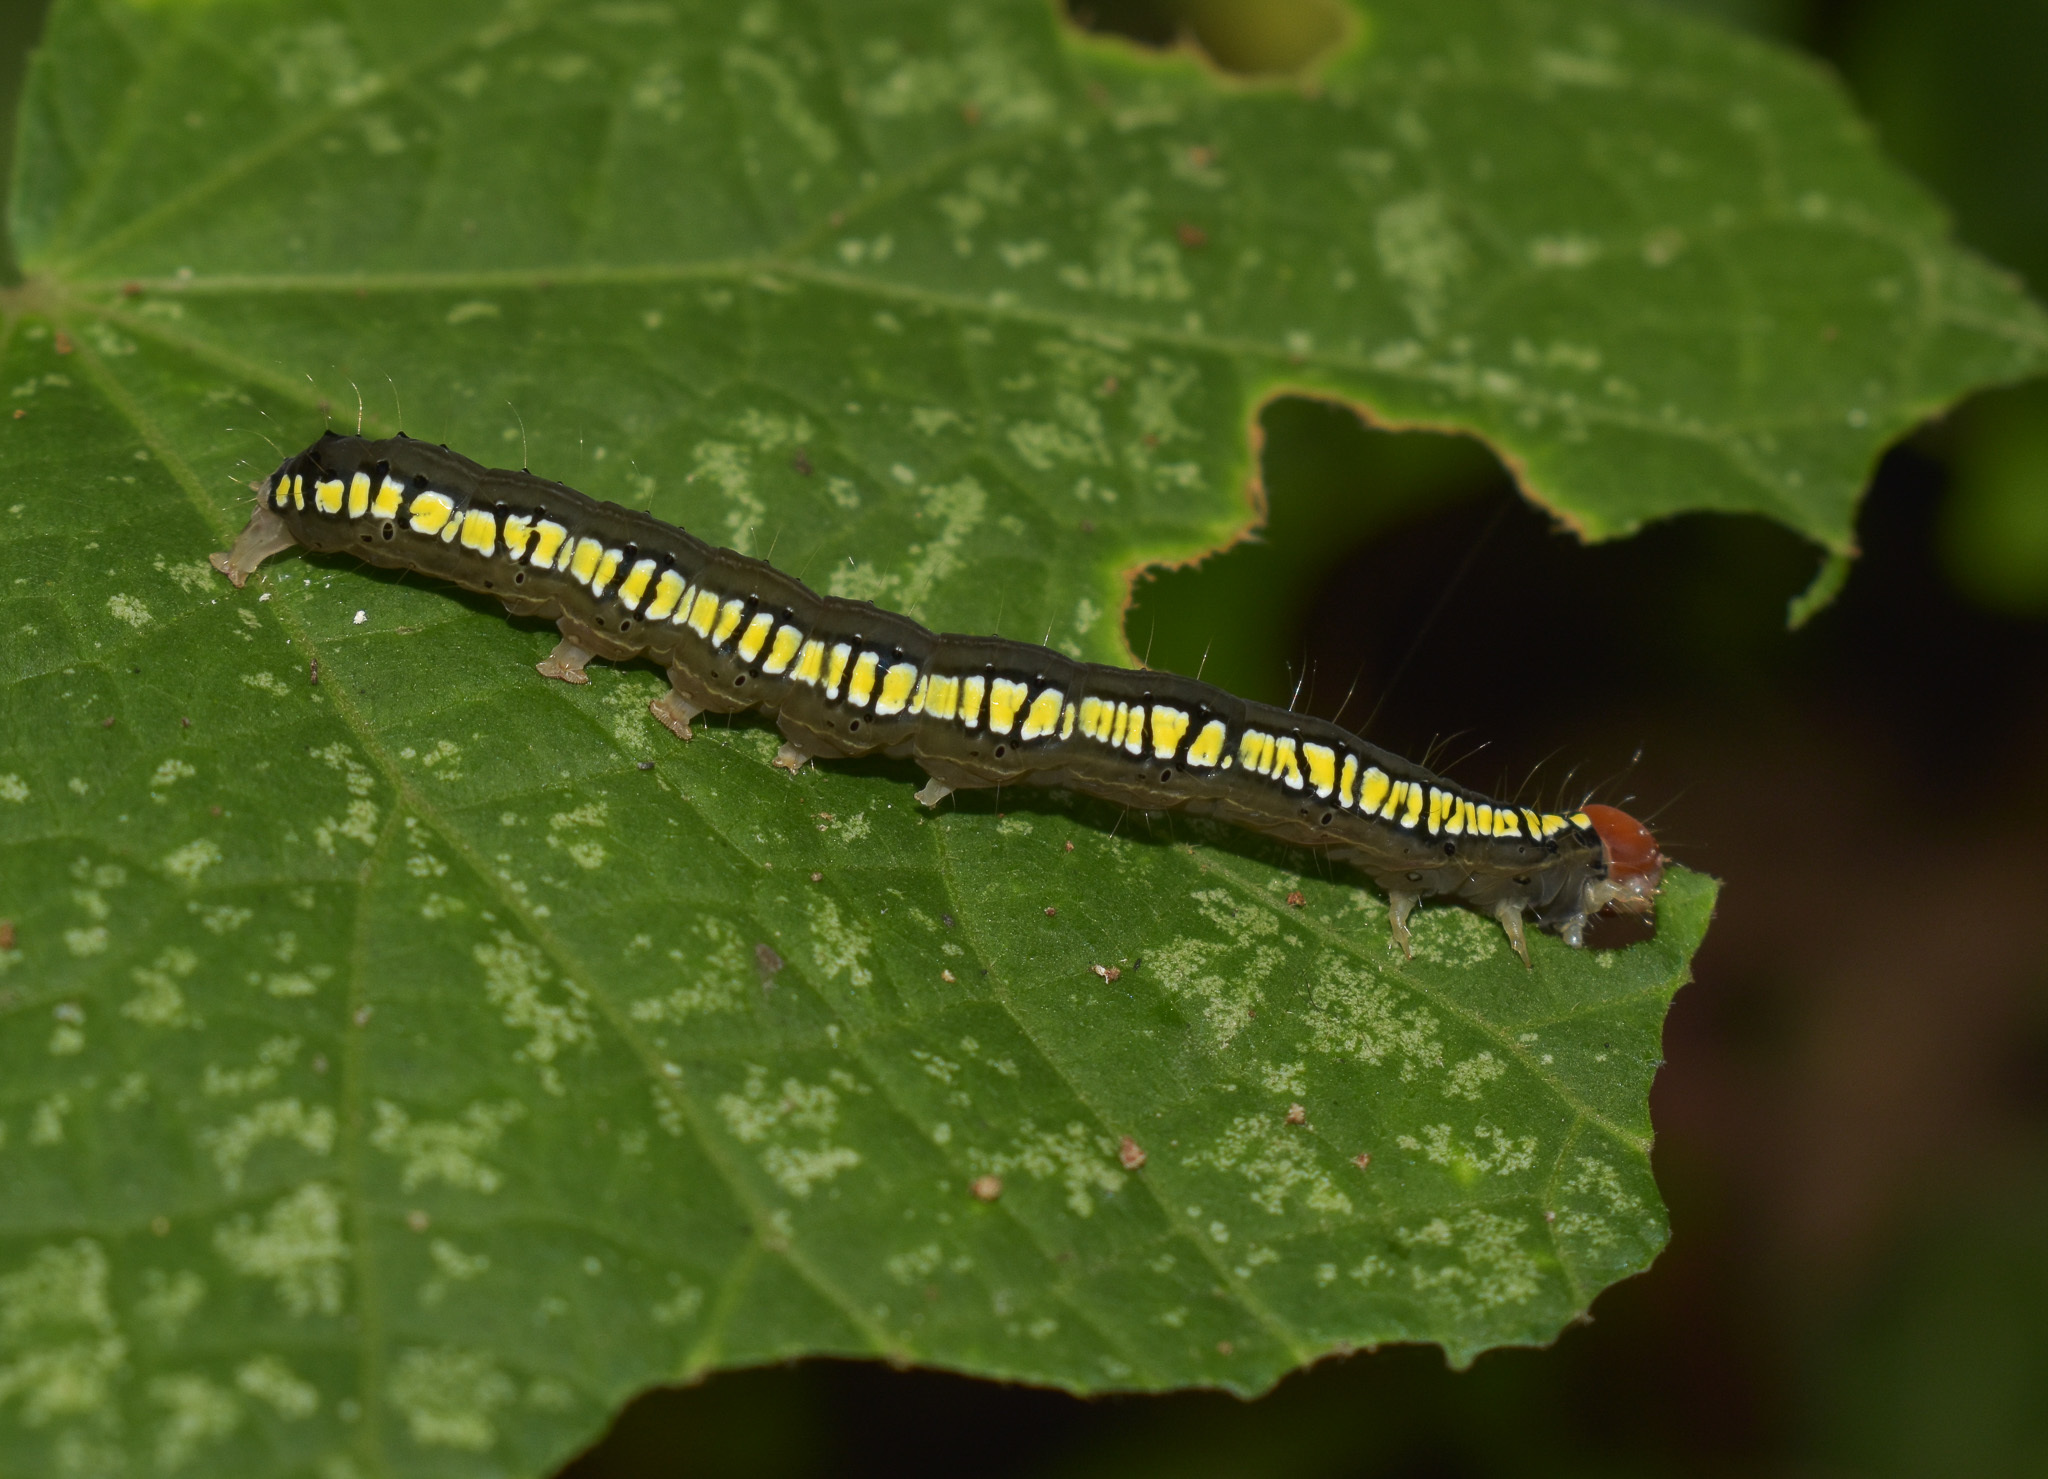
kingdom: Animalia
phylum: Arthropoda
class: Insecta
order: Lepidoptera
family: Erebidae
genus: Rusicada
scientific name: Rusicada combinans
